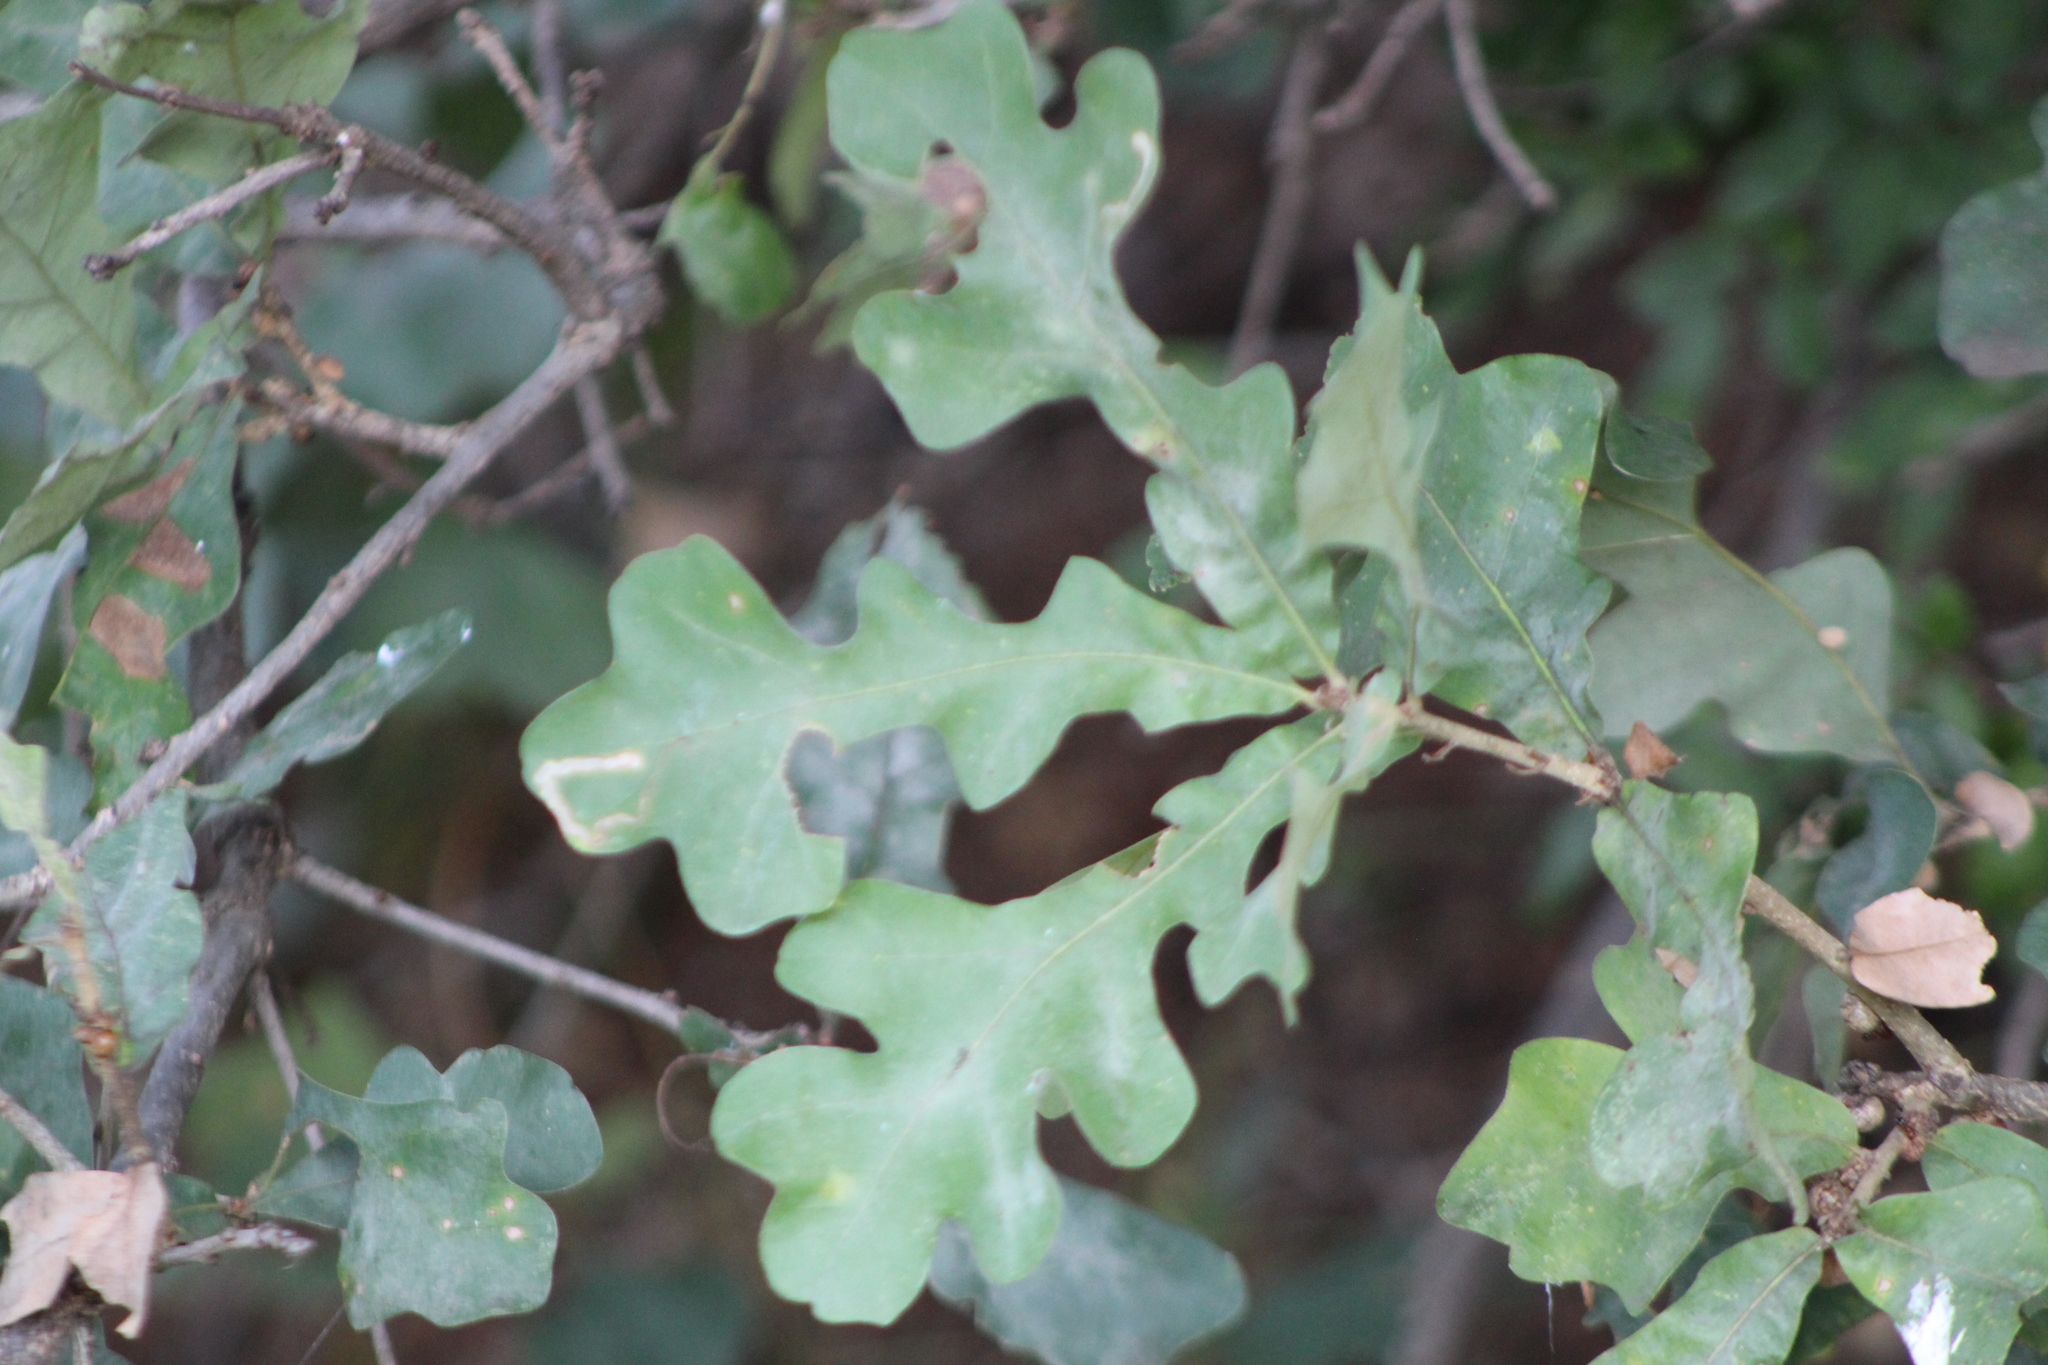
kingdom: Plantae
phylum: Tracheophyta
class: Magnoliopsida
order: Fagales
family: Fagaceae
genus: Quercus
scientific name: Quercus stellata
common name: Post oak
